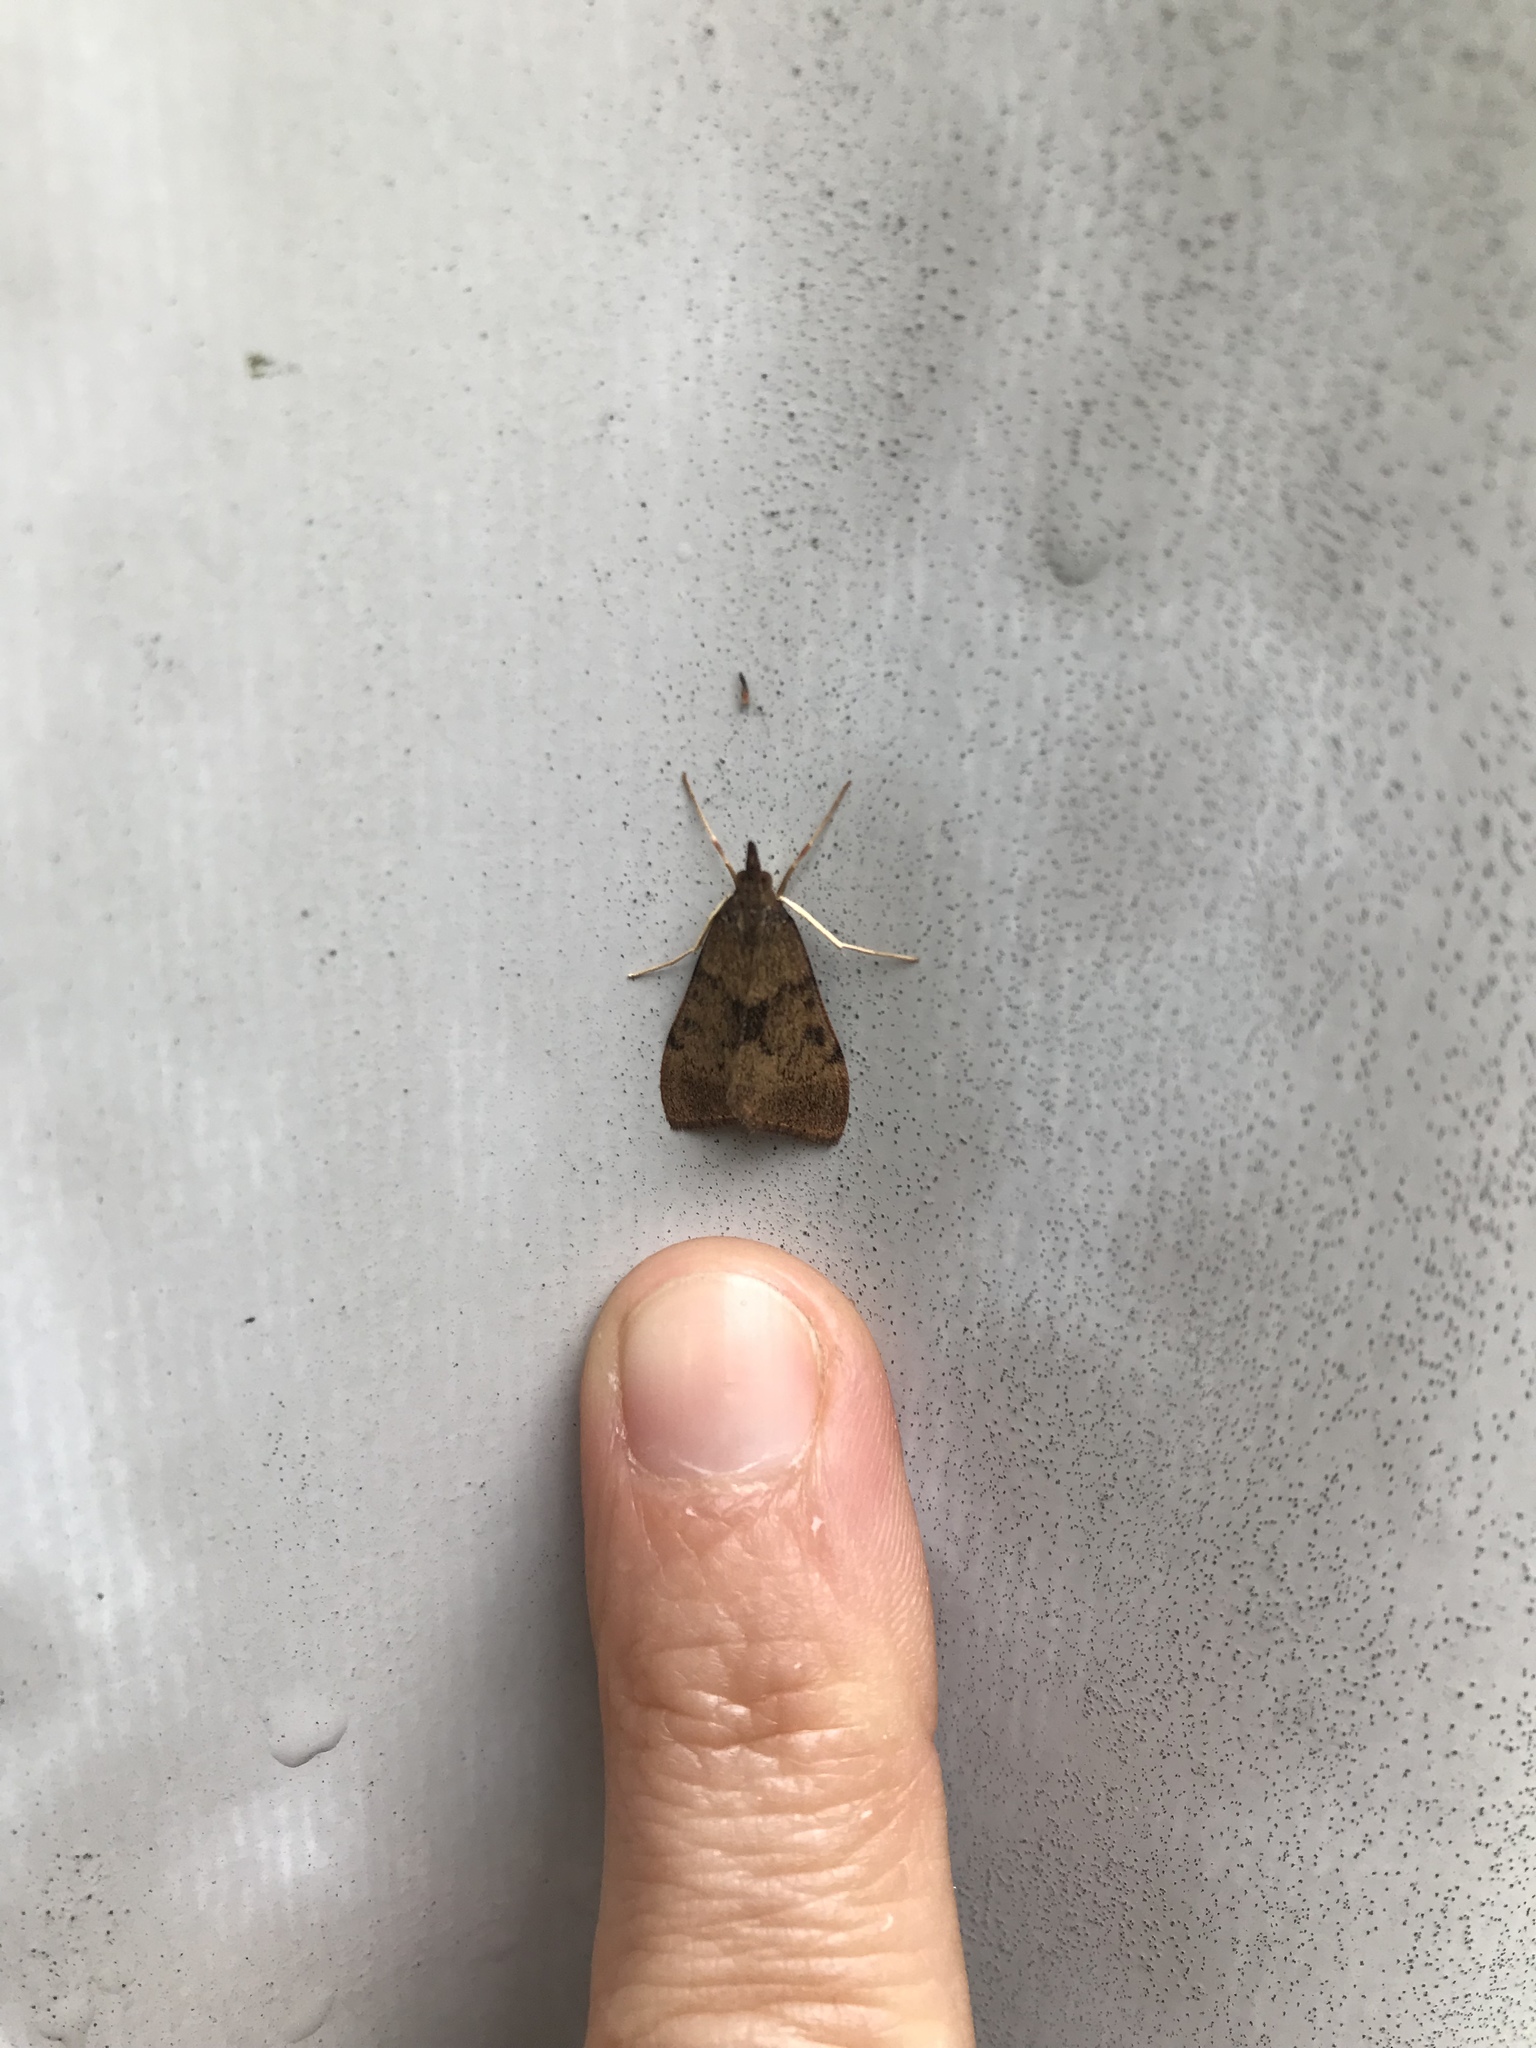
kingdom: Animalia
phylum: Arthropoda
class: Insecta
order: Lepidoptera
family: Crambidae
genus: Uresiphita
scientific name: Uresiphita
